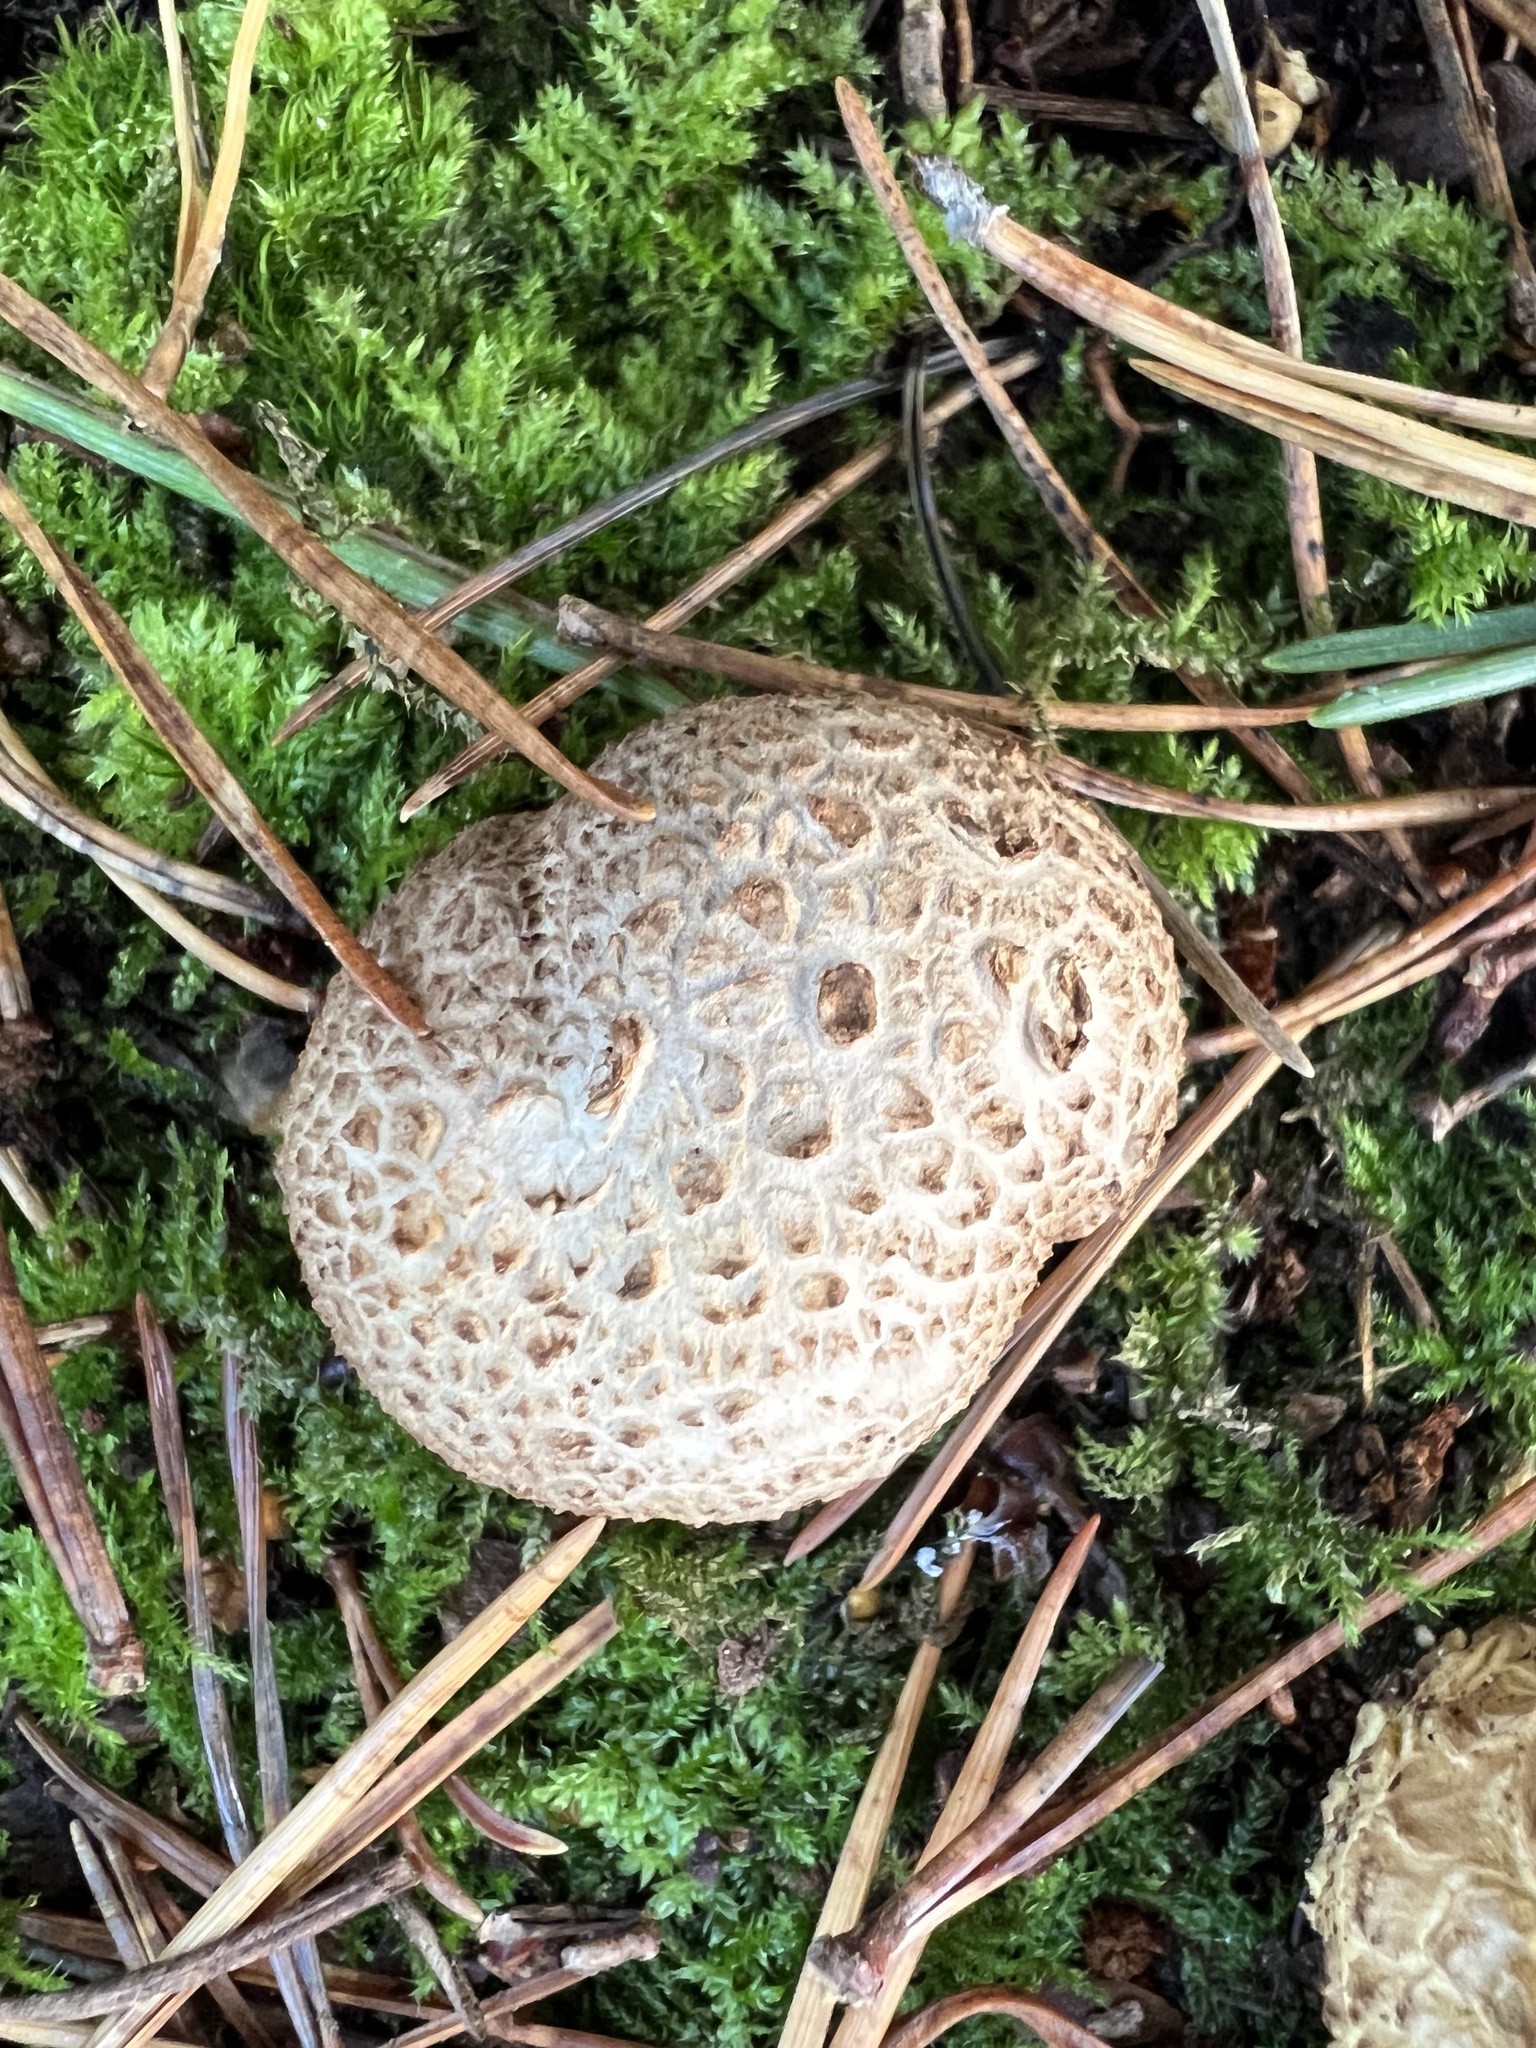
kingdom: Fungi
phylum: Basidiomycota
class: Agaricomycetes
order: Boletales
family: Sclerodermataceae
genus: Scleroderma
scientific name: Scleroderma citrinum
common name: Common earthball
